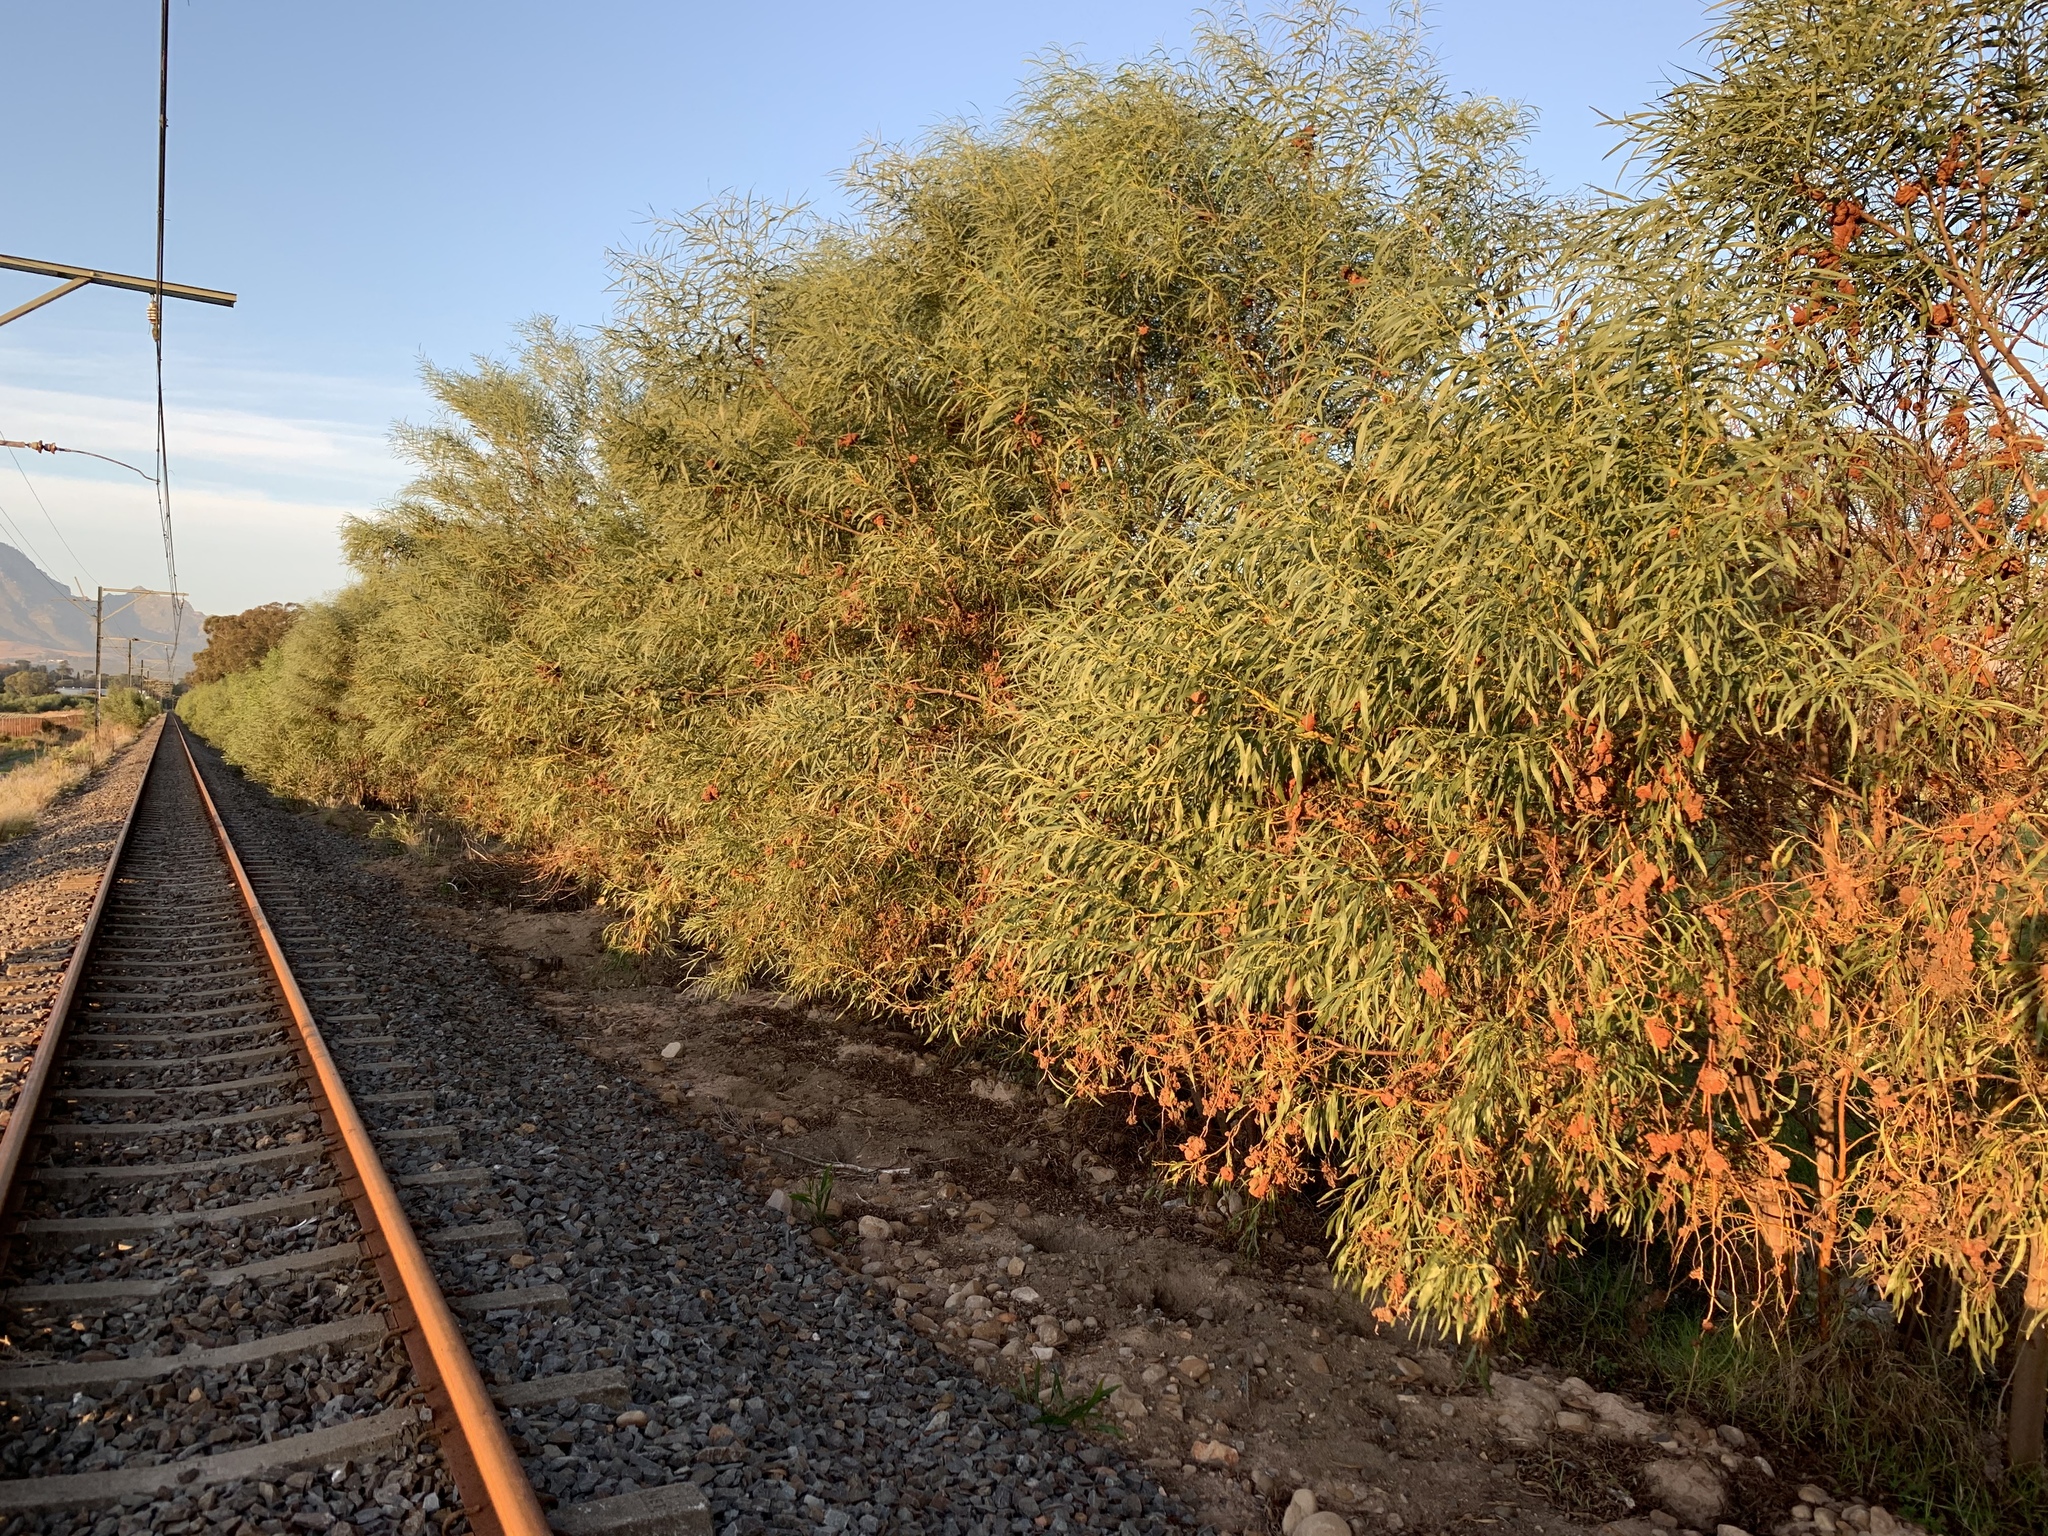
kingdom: Plantae
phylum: Tracheophyta
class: Magnoliopsida
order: Fabales
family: Fabaceae
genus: Acacia
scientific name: Acacia saligna
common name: Orange wattle
